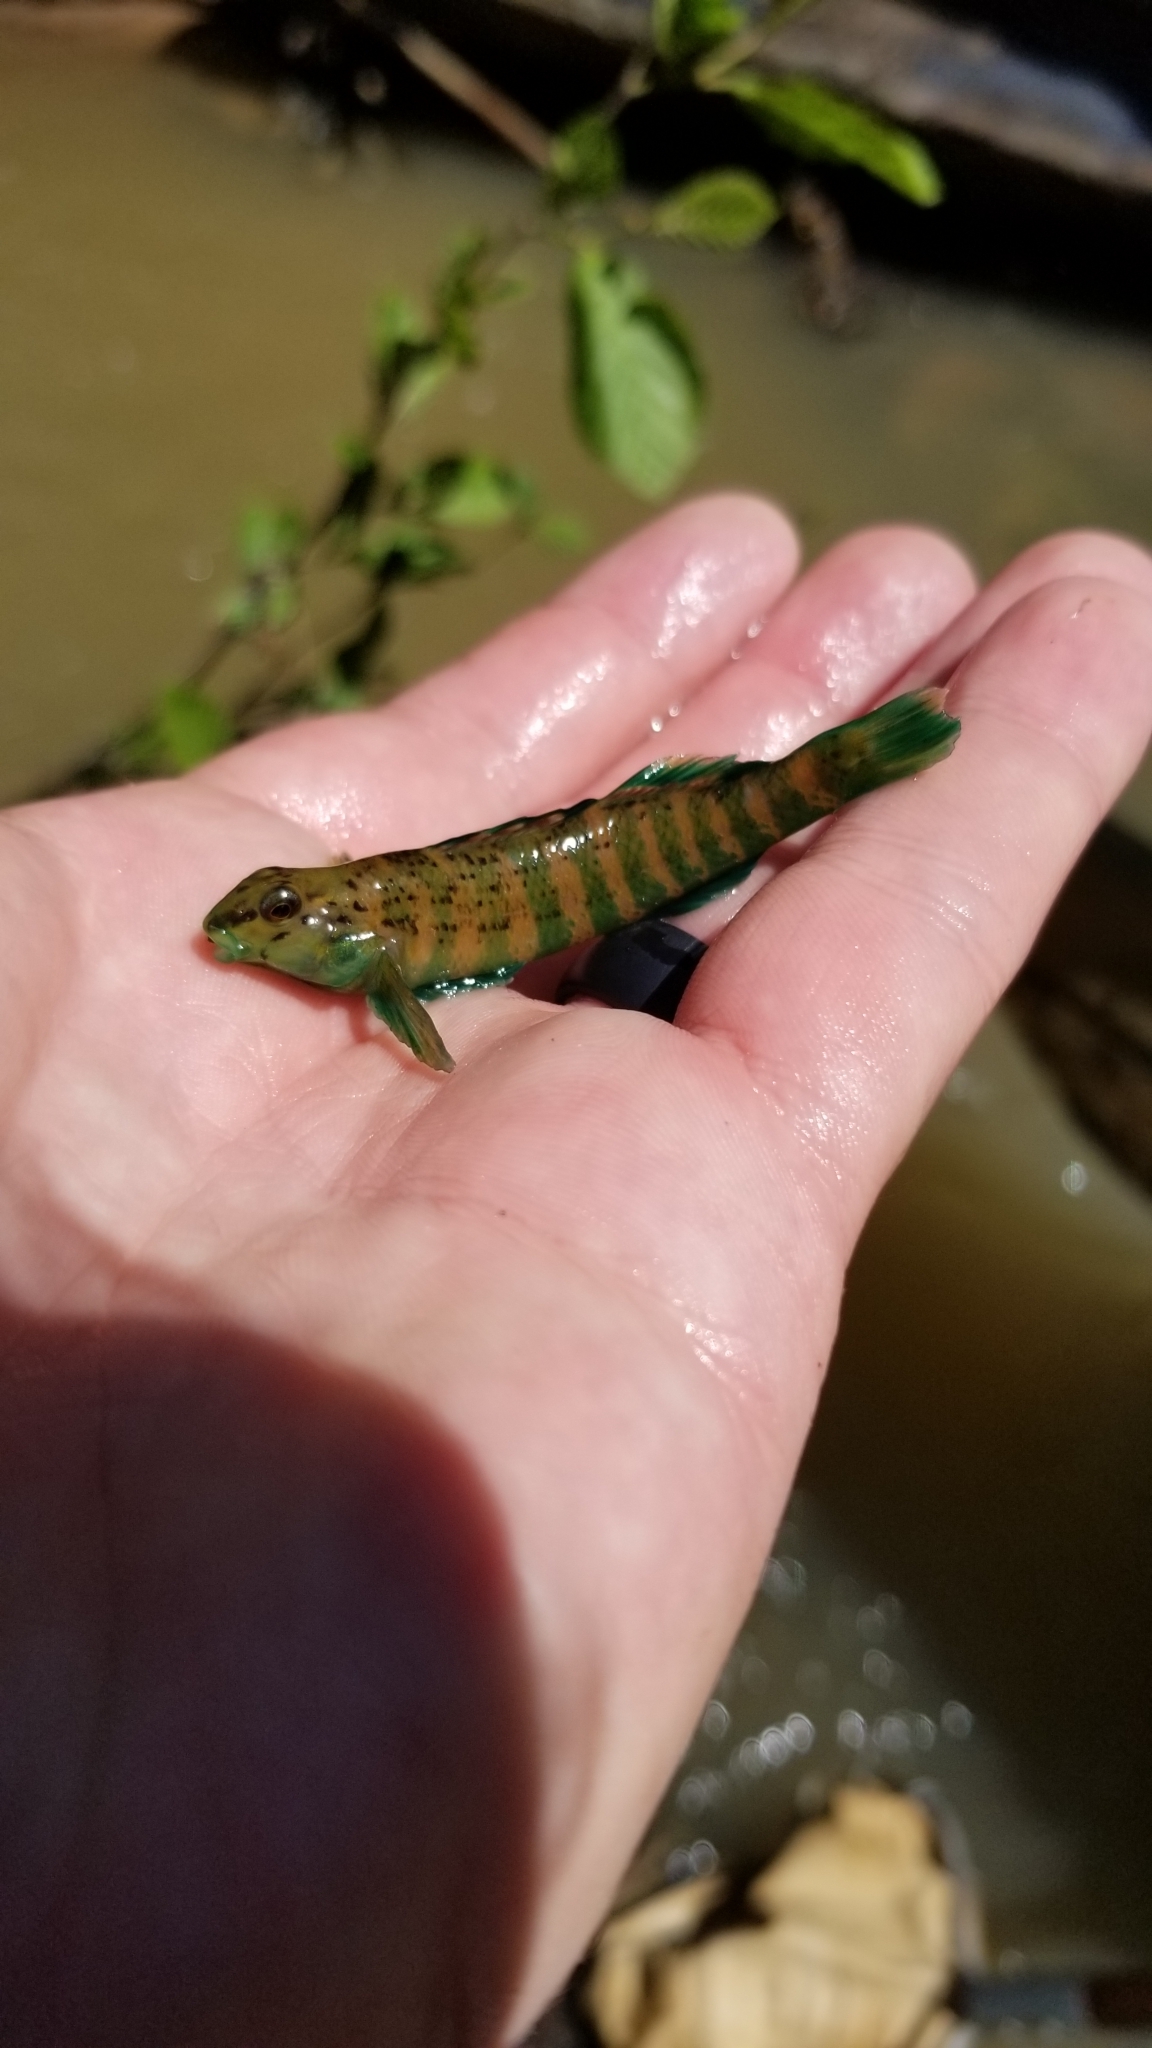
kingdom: Animalia
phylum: Chordata
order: Perciformes
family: Percidae
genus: Etheostoma
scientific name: Etheostoma lynceum
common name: Brighteye darter
